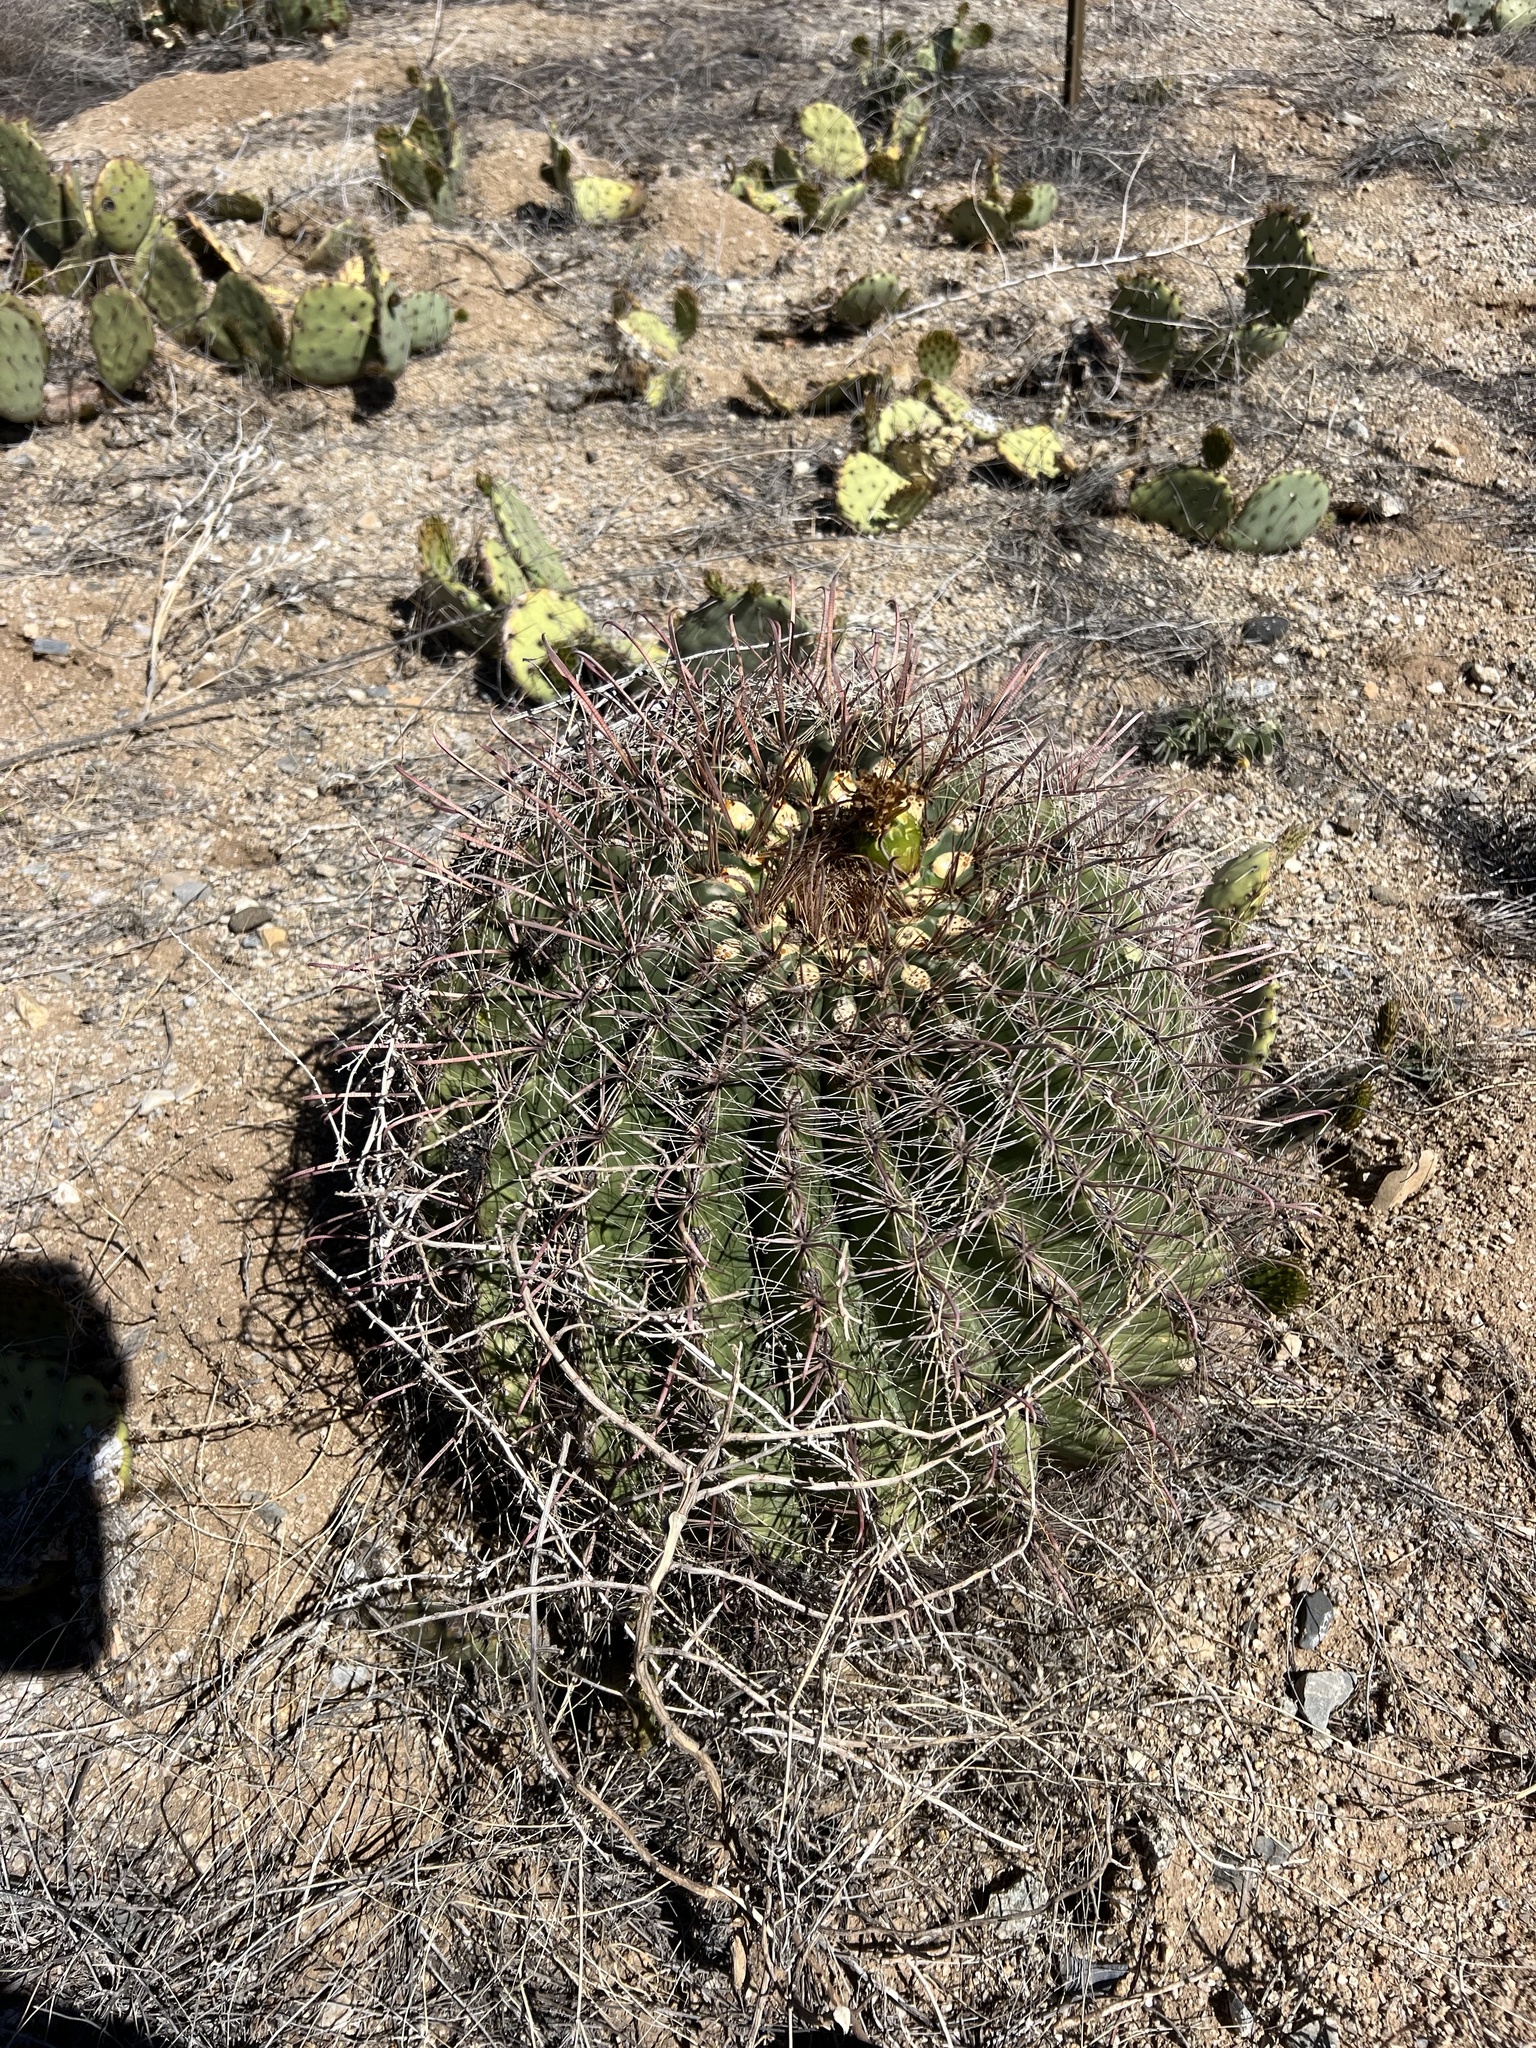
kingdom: Plantae
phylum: Tracheophyta
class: Magnoliopsida
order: Caryophyllales
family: Cactaceae
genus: Ferocactus
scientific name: Ferocactus wislizeni
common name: Candy barrel cactus
